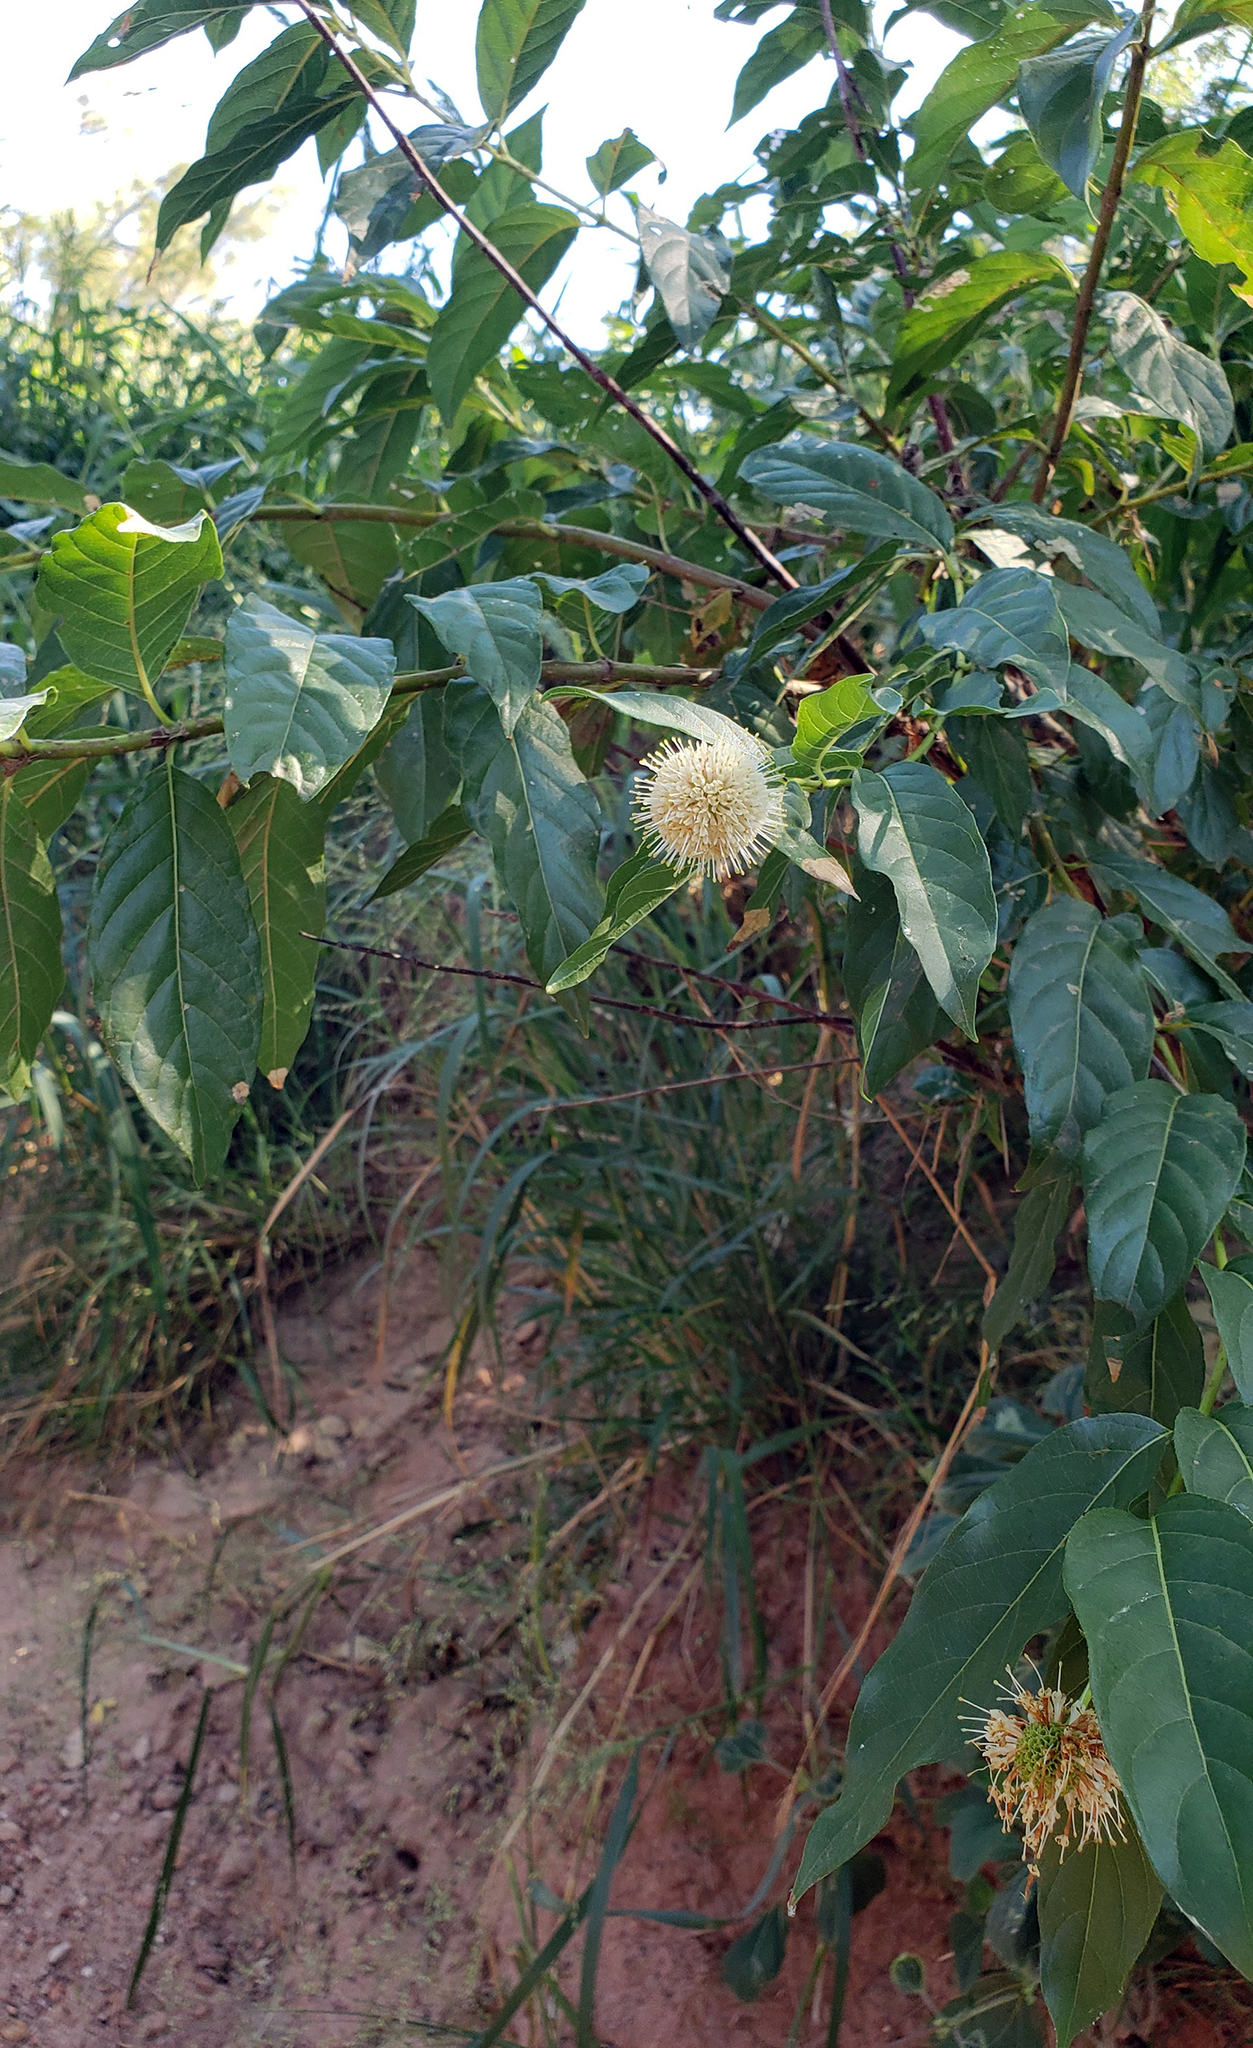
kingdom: Plantae
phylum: Tracheophyta
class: Magnoliopsida
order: Gentianales
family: Rubiaceae
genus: Cephalanthus
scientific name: Cephalanthus occidentalis
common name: Button-willow
